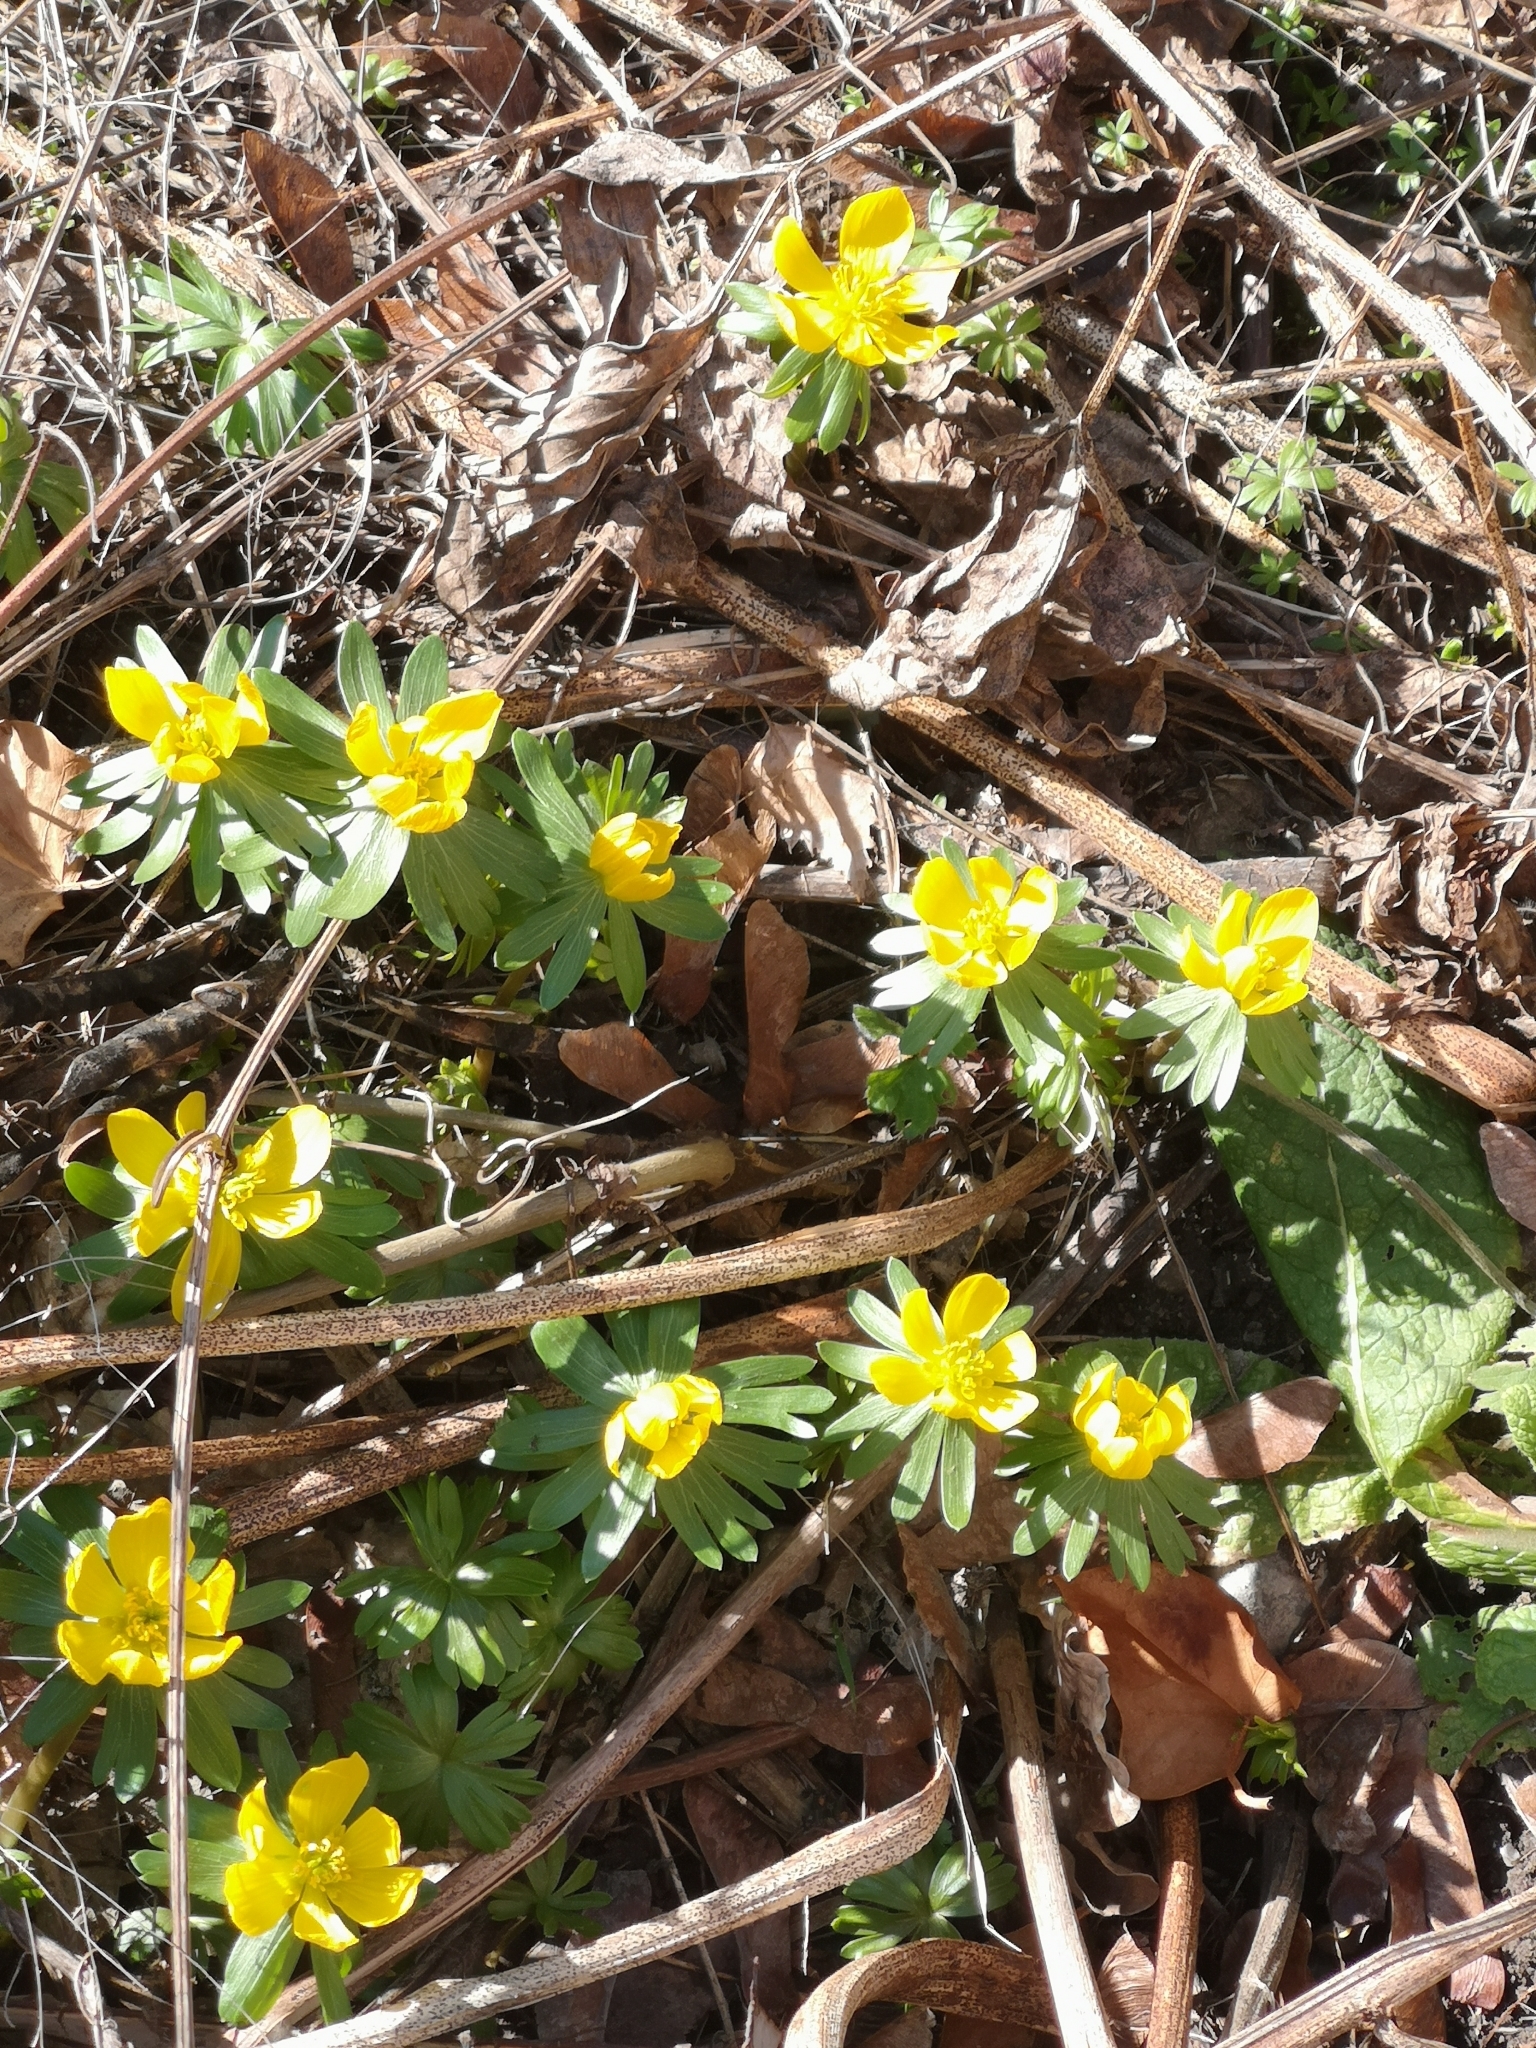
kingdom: Plantae
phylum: Tracheophyta
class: Magnoliopsida
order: Ranunculales
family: Ranunculaceae
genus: Eranthis
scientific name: Eranthis hyemalis
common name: Winter aconite
